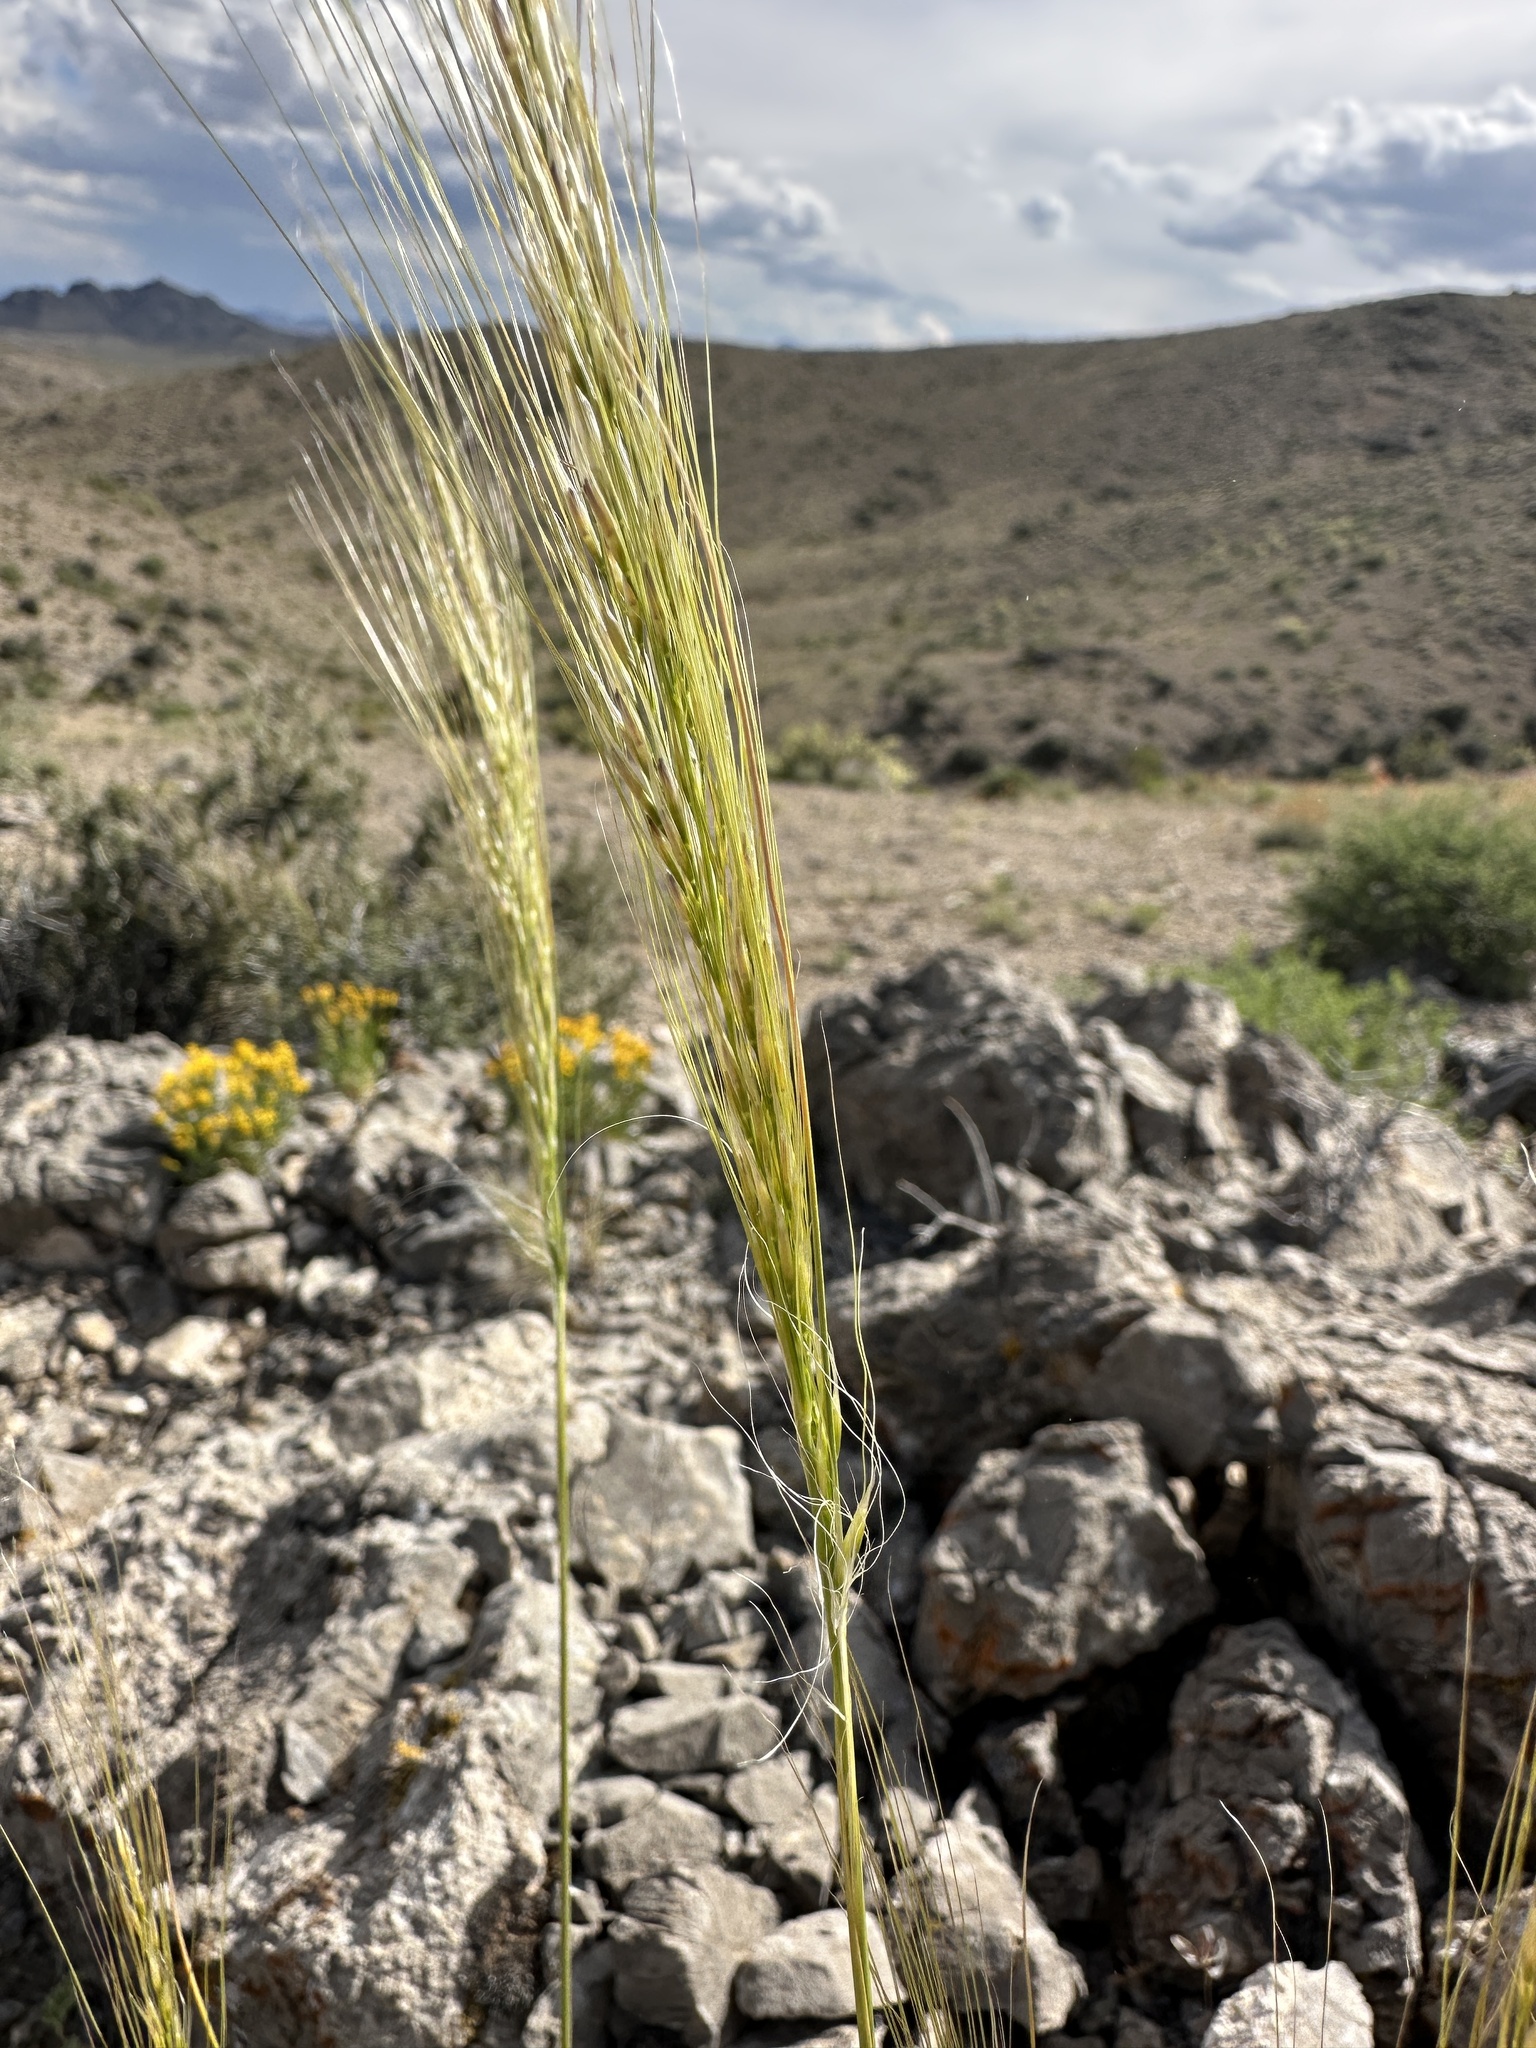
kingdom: Plantae
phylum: Tracheophyta
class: Liliopsida
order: Poales
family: Poaceae
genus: Eriocoma
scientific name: Eriocoma arida
